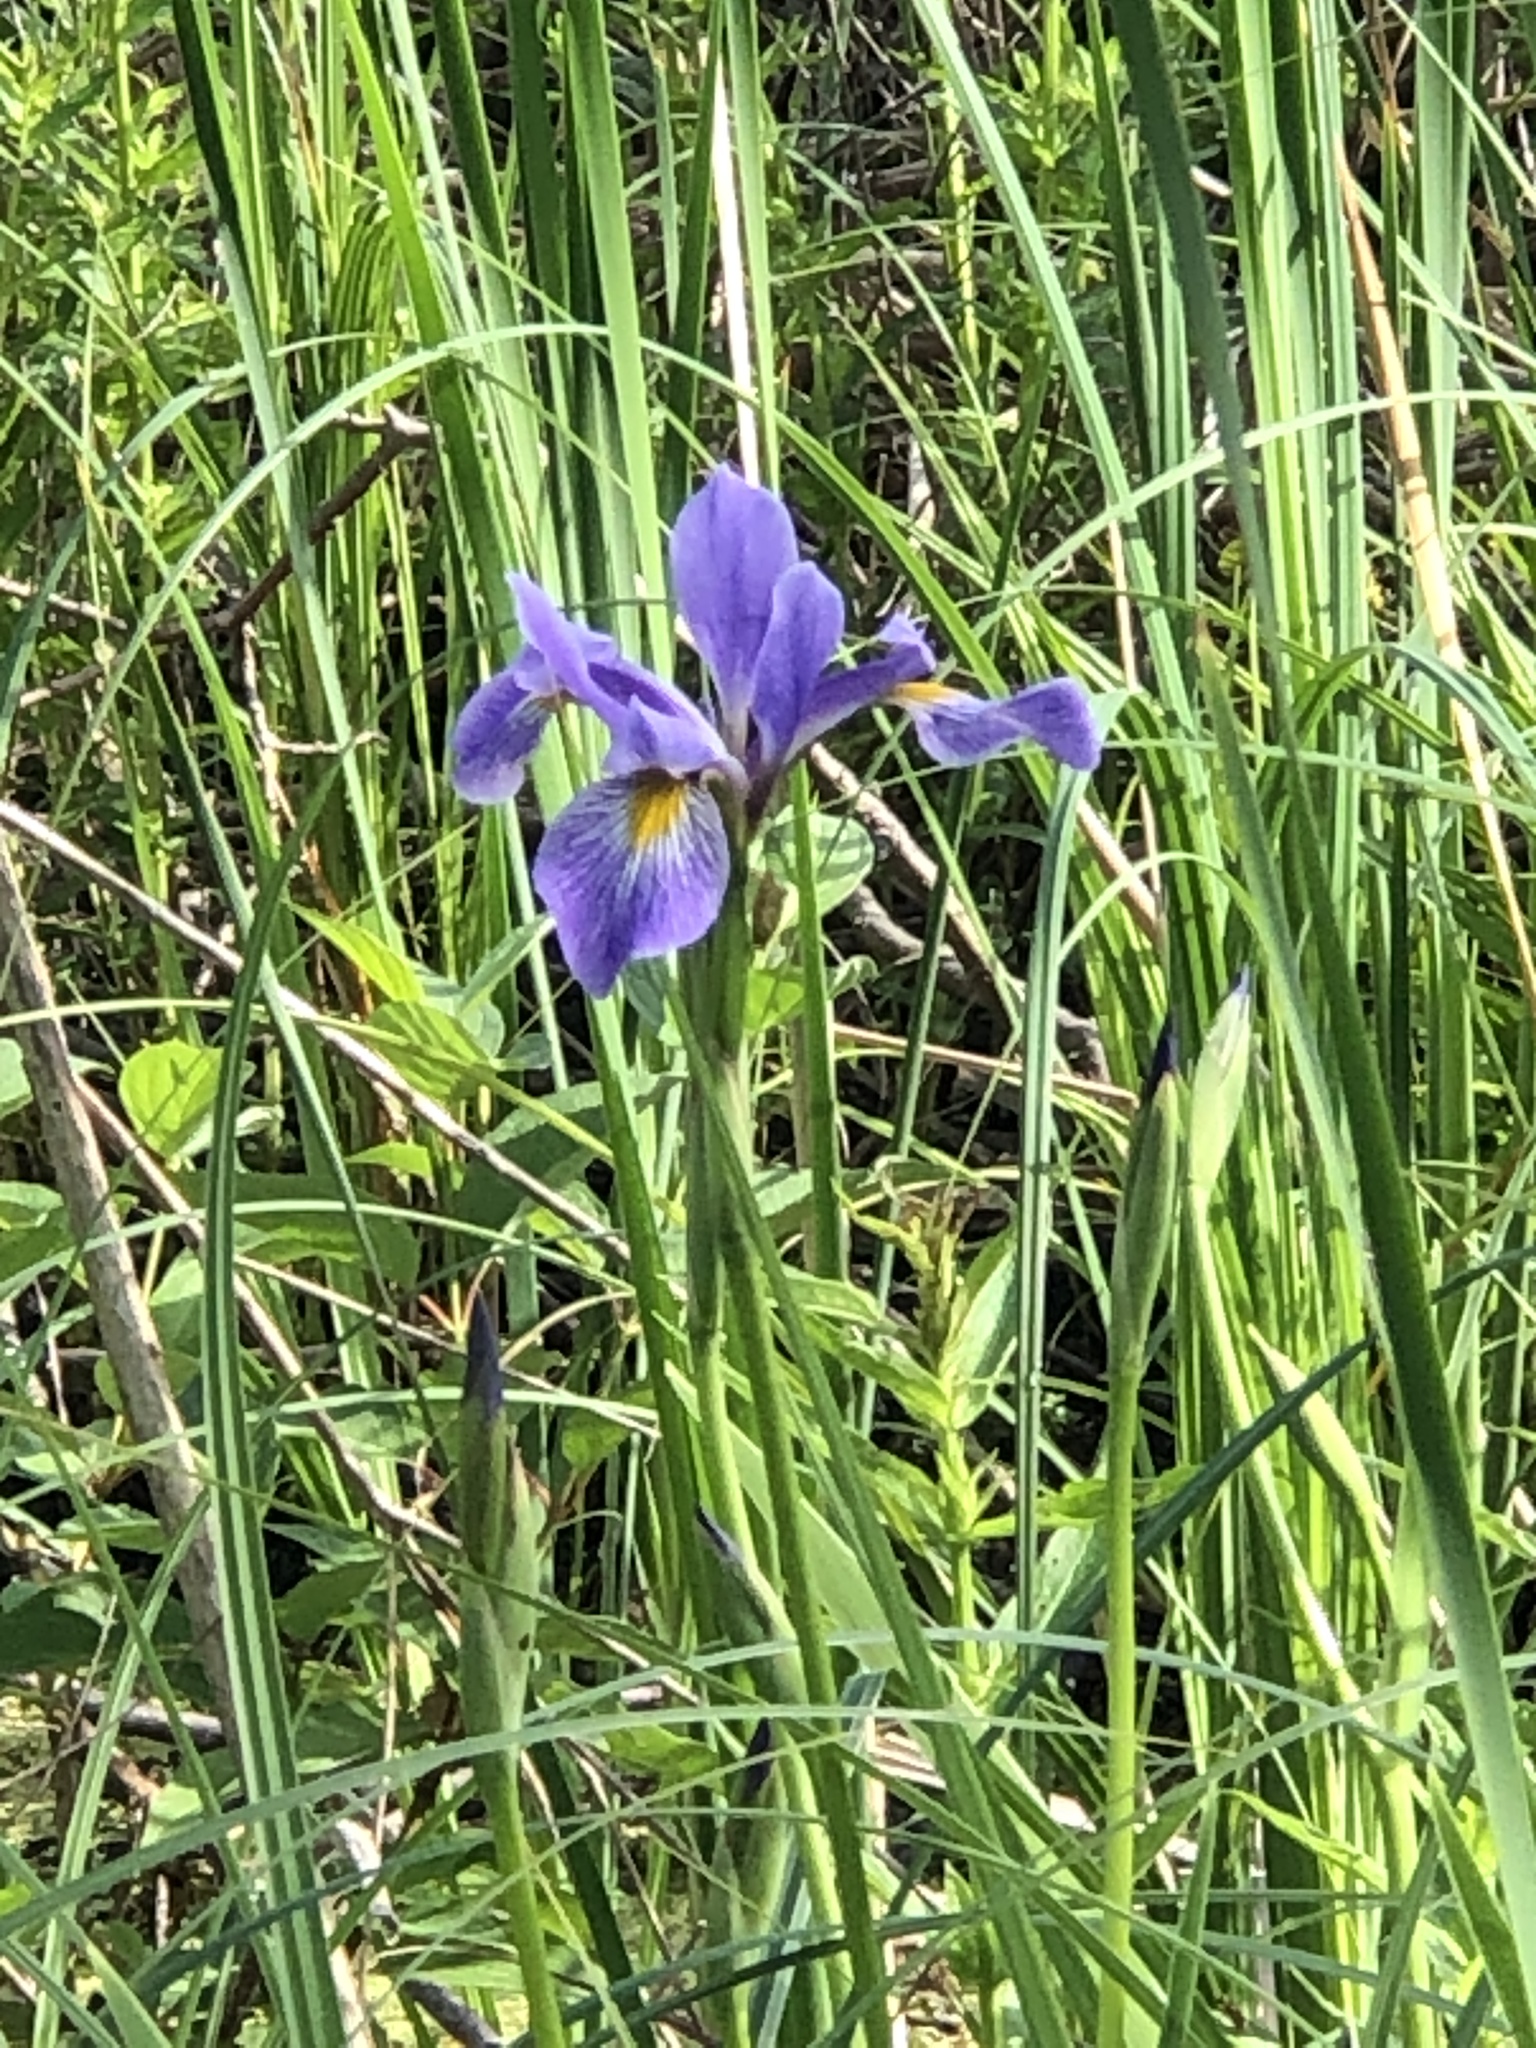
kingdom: Plantae
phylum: Tracheophyta
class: Liliopsida
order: Asparagales
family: Iridaceae
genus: Iris
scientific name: Iris virginica
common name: Southern blue flag
